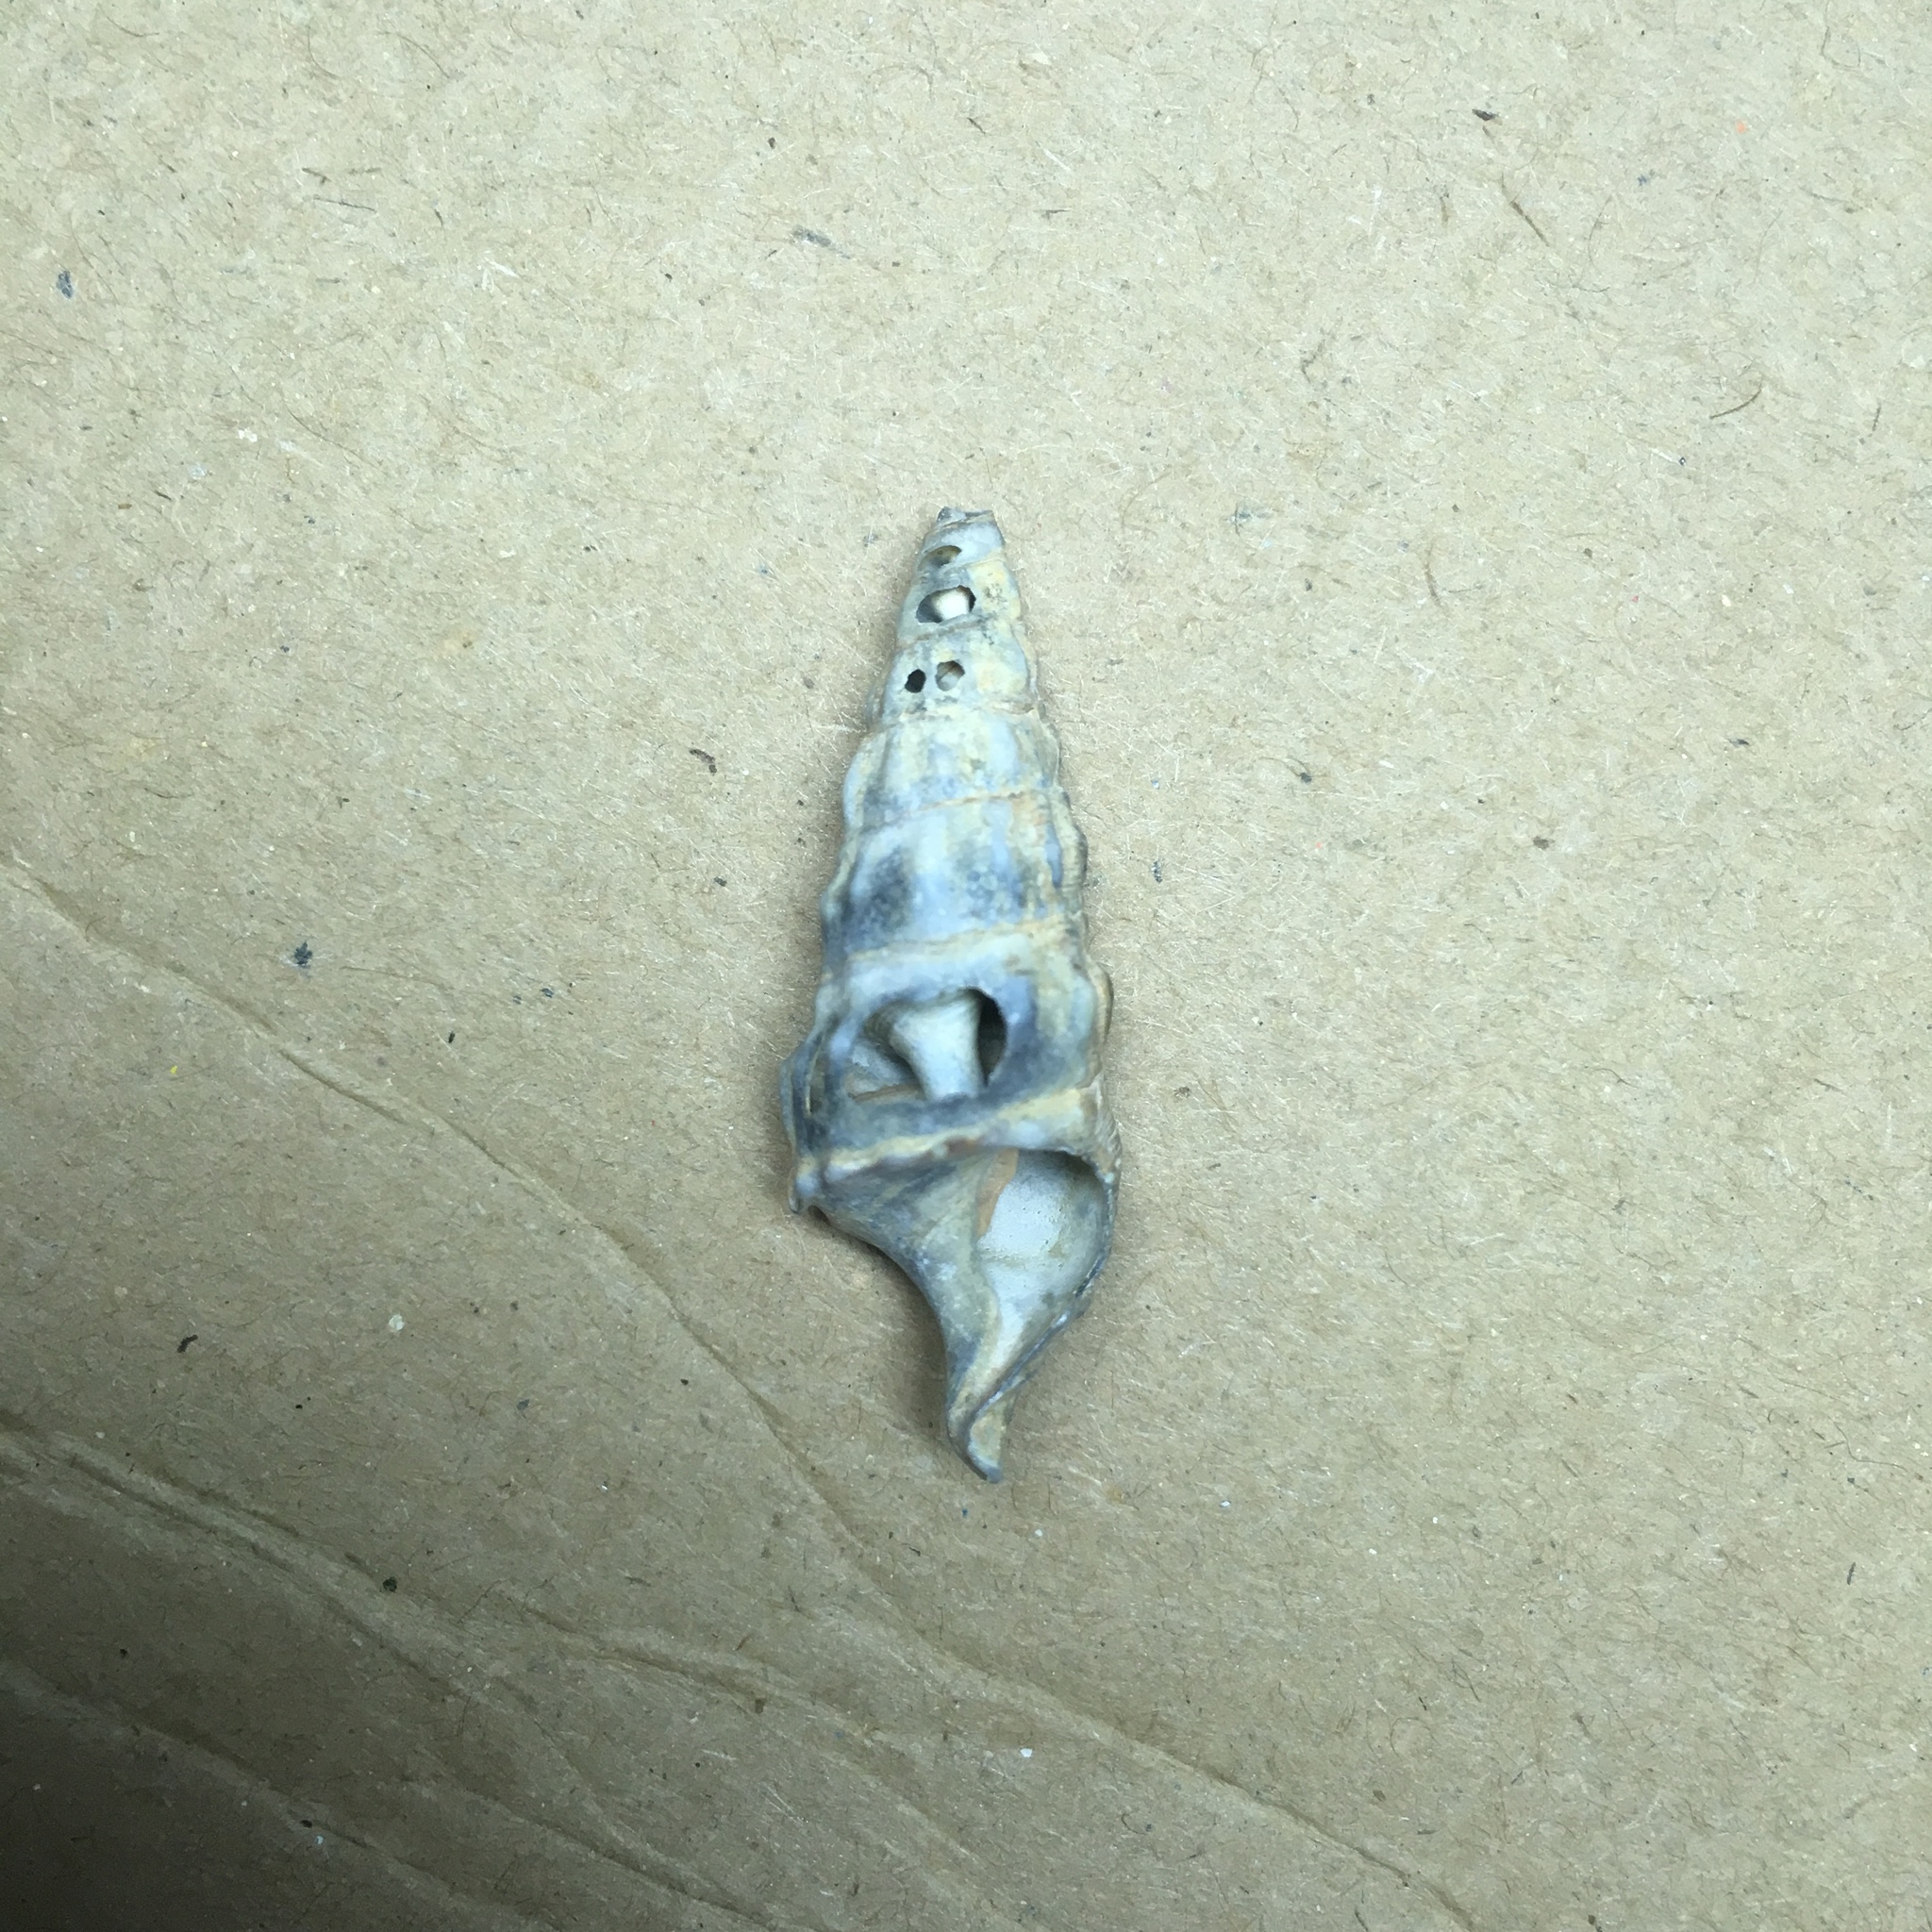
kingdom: Animalia
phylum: Mollusca
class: Gastropoda
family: Cerithiidae
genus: Cerithium
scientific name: Cerithium vulgatum
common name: European cerith
